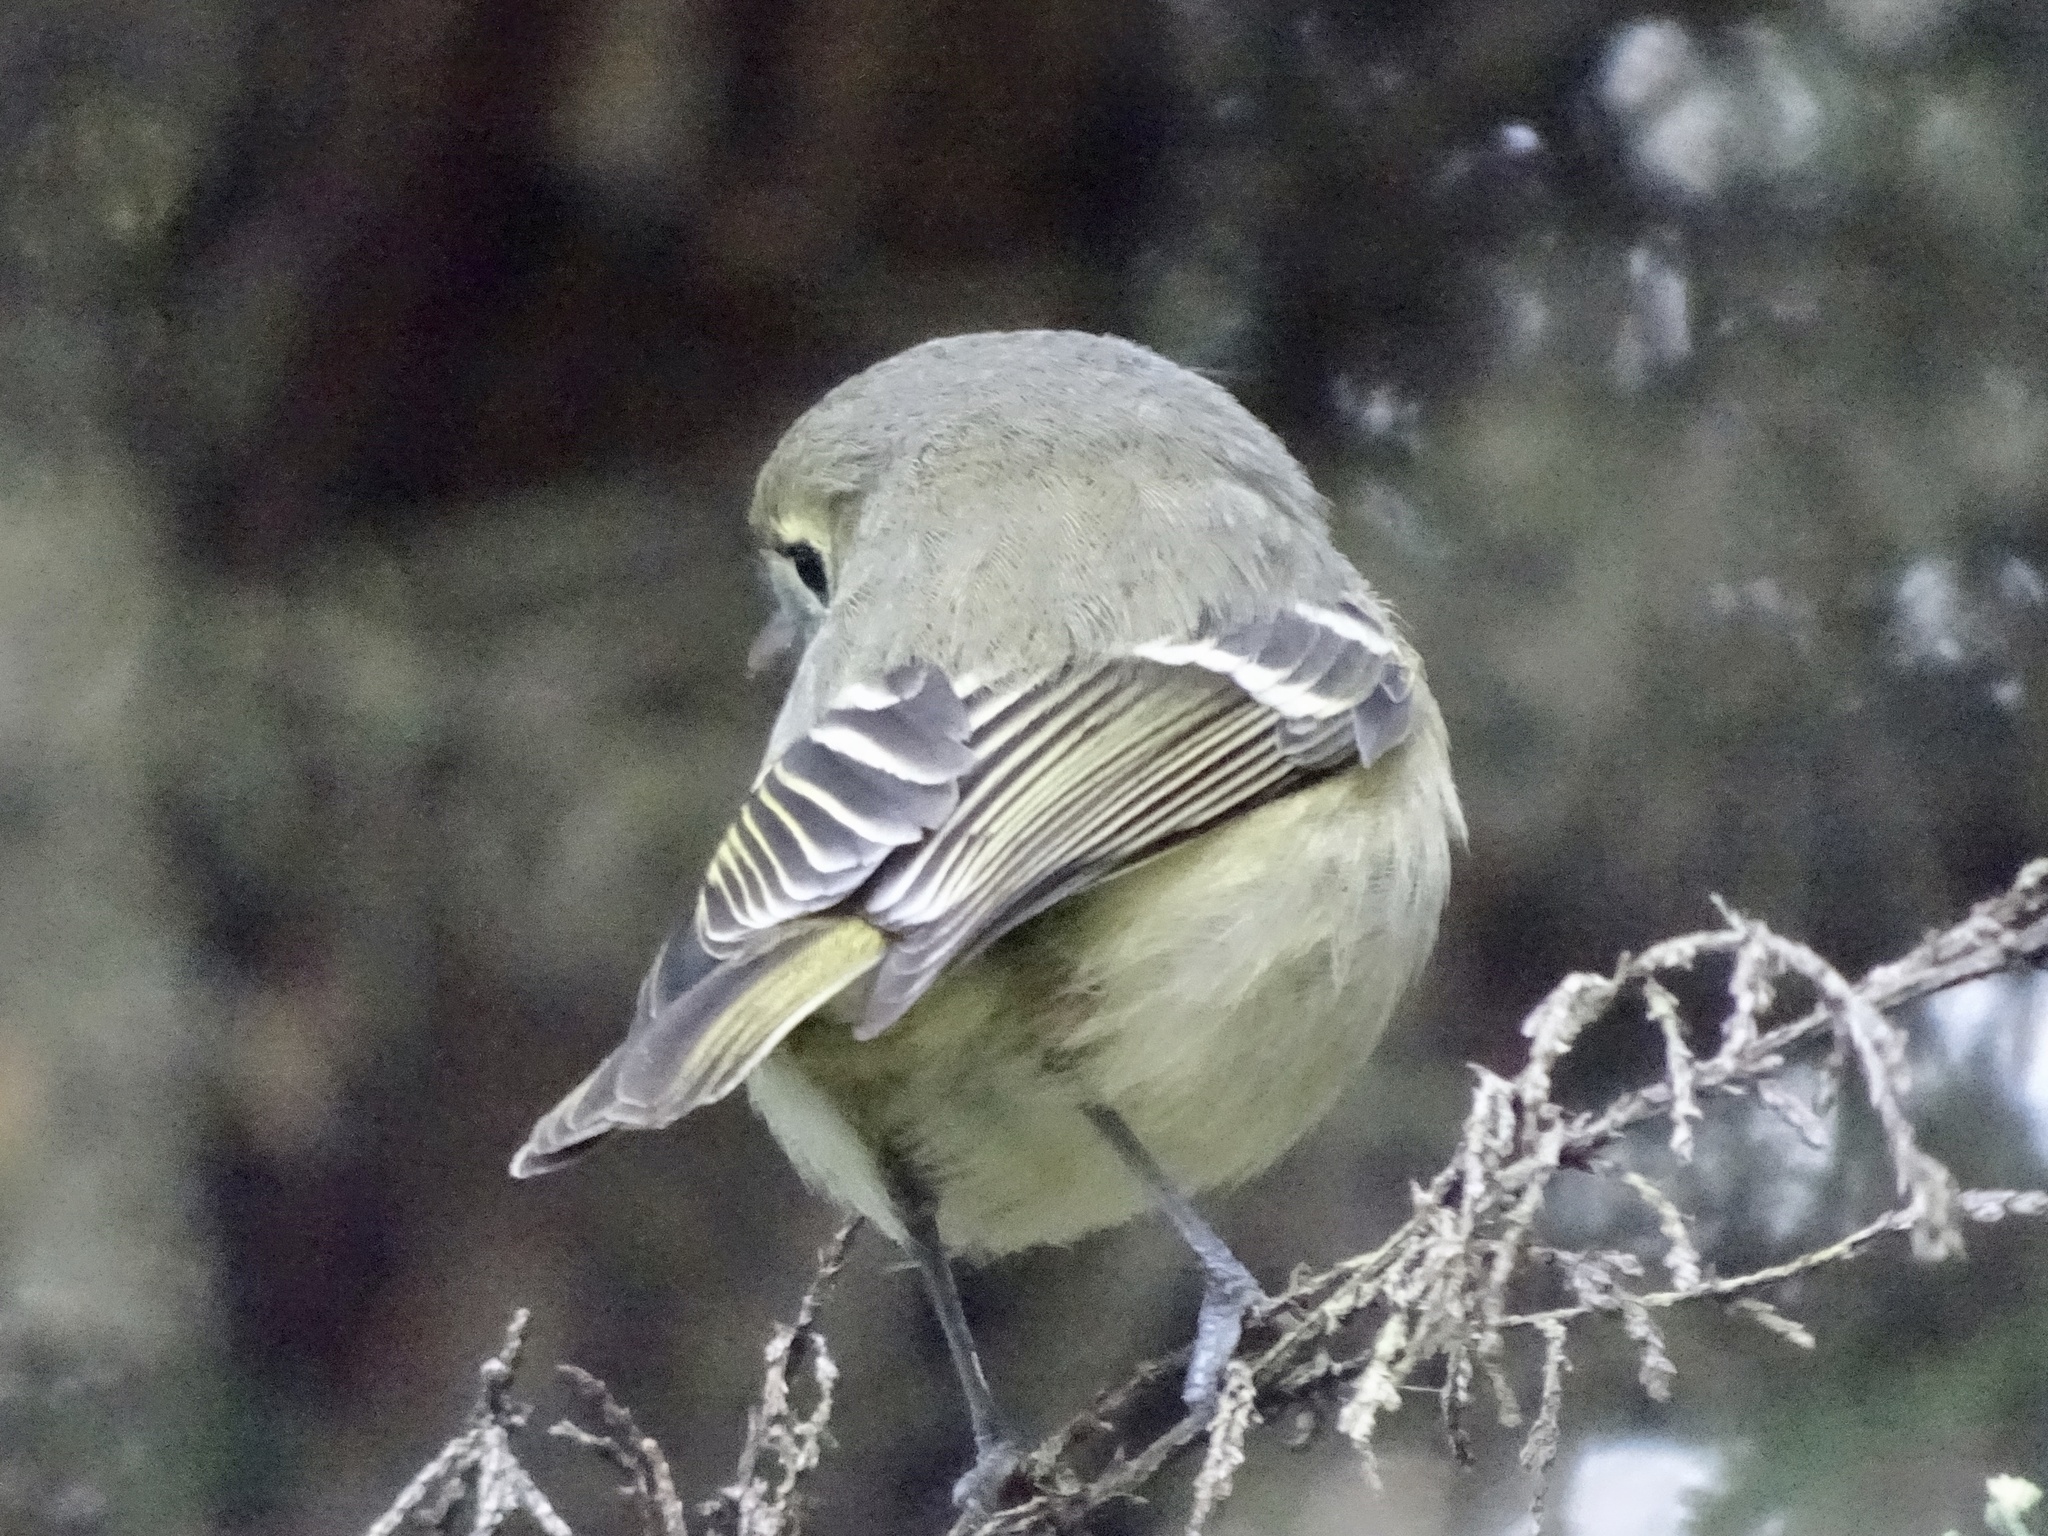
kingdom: Animalia
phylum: Chordata
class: Aves
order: Passeriformes
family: Vireonidae
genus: Vireo
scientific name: Vireo huttoni
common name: Hutton's vireo
